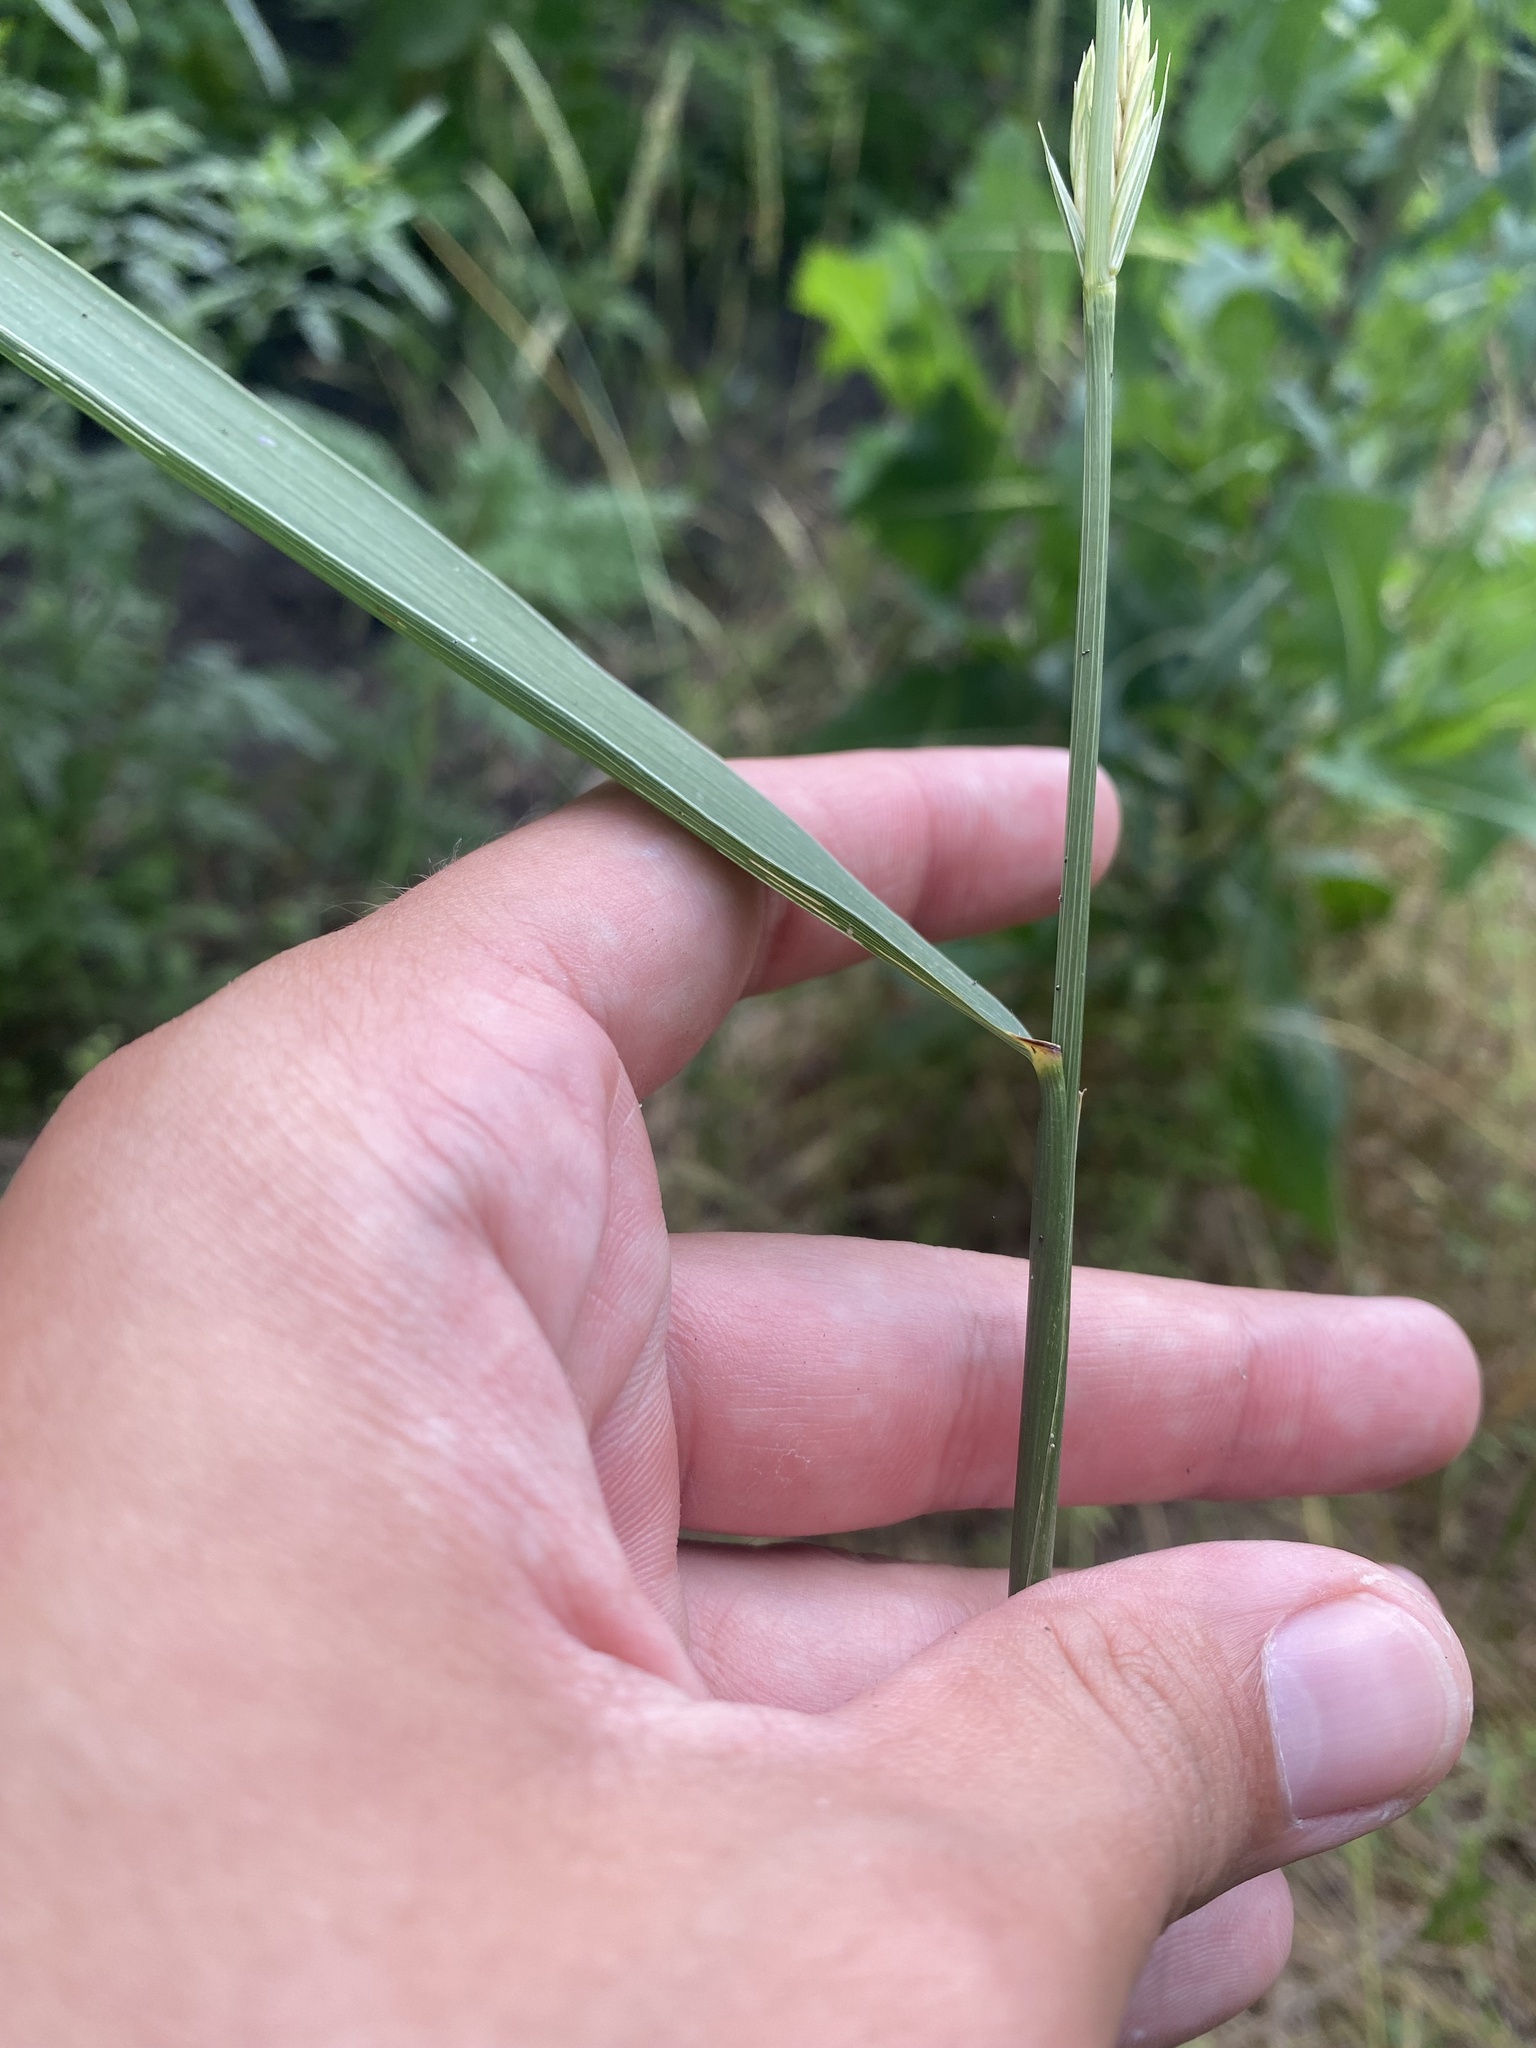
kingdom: Plantae
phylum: Tracheophyta
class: Liliopsida
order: Poales
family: Poaceae
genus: Elymus
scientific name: Elymus repens
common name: Quackgrass
